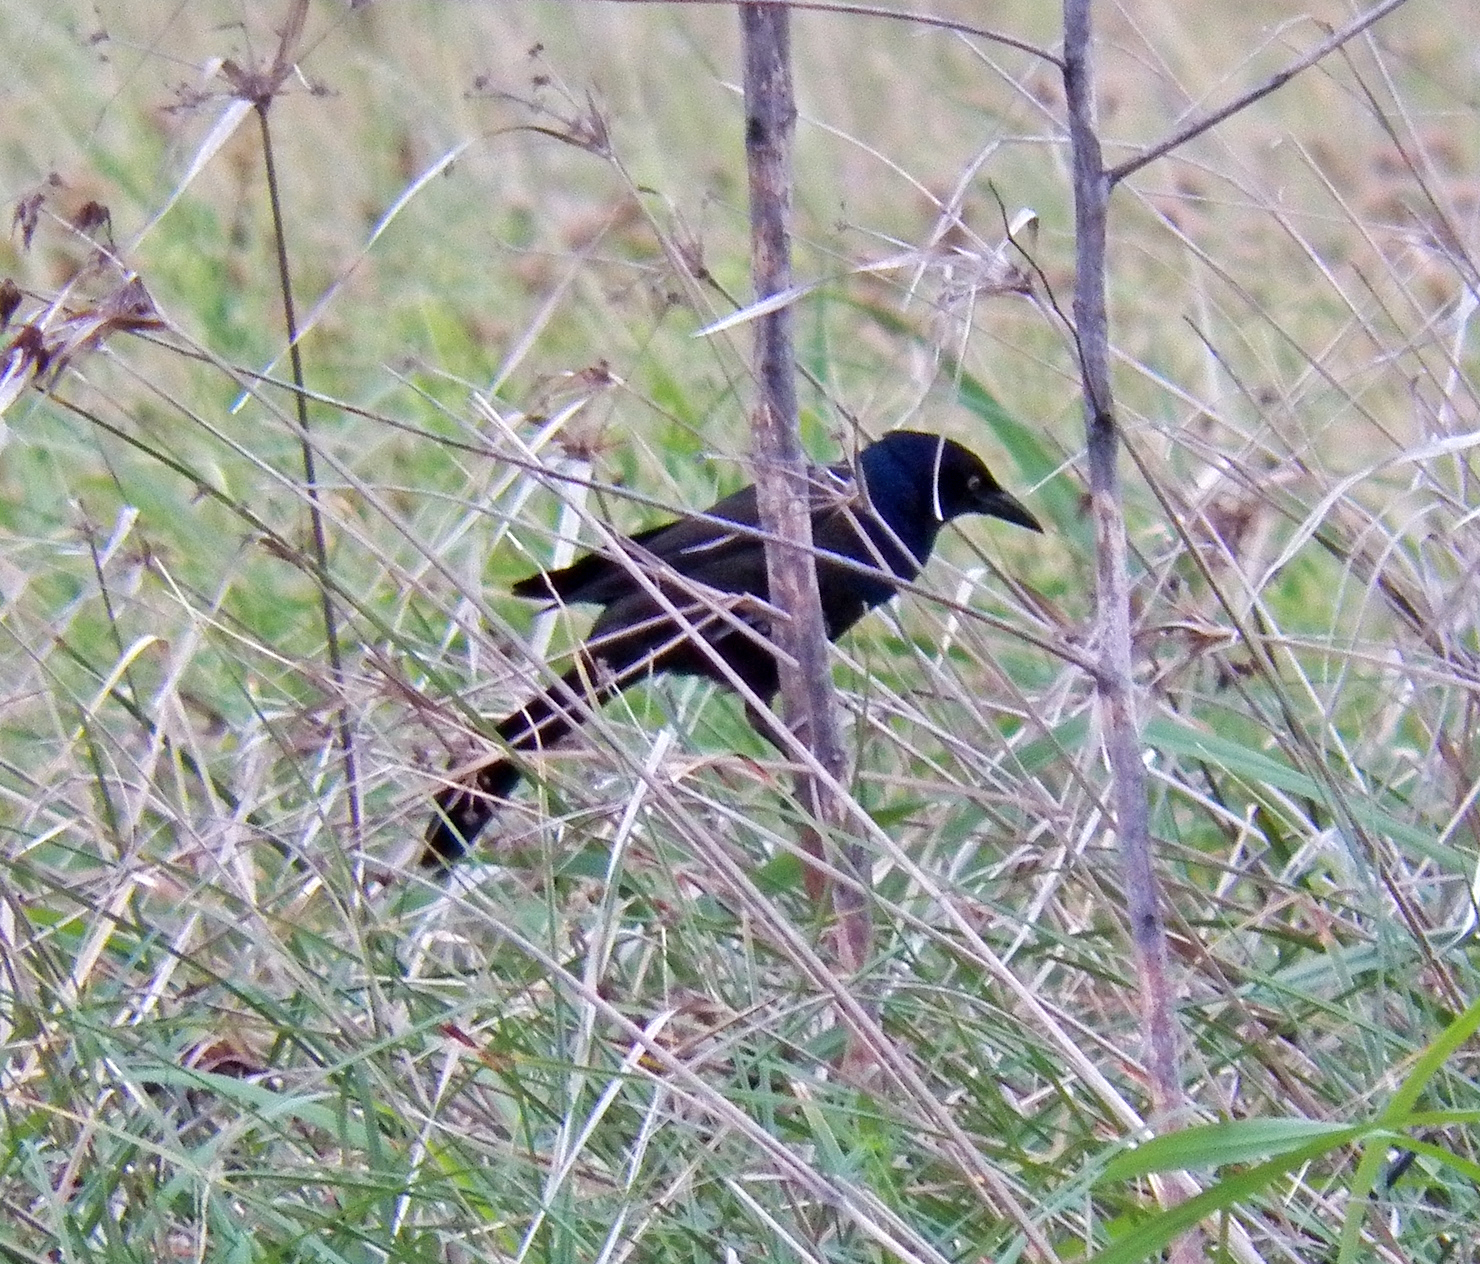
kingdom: Animalia
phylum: Chordata
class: Aves
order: Passeriformes
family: Icteridae
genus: Quiscalus
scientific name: Quiscalus quiscula
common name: Common grackle
